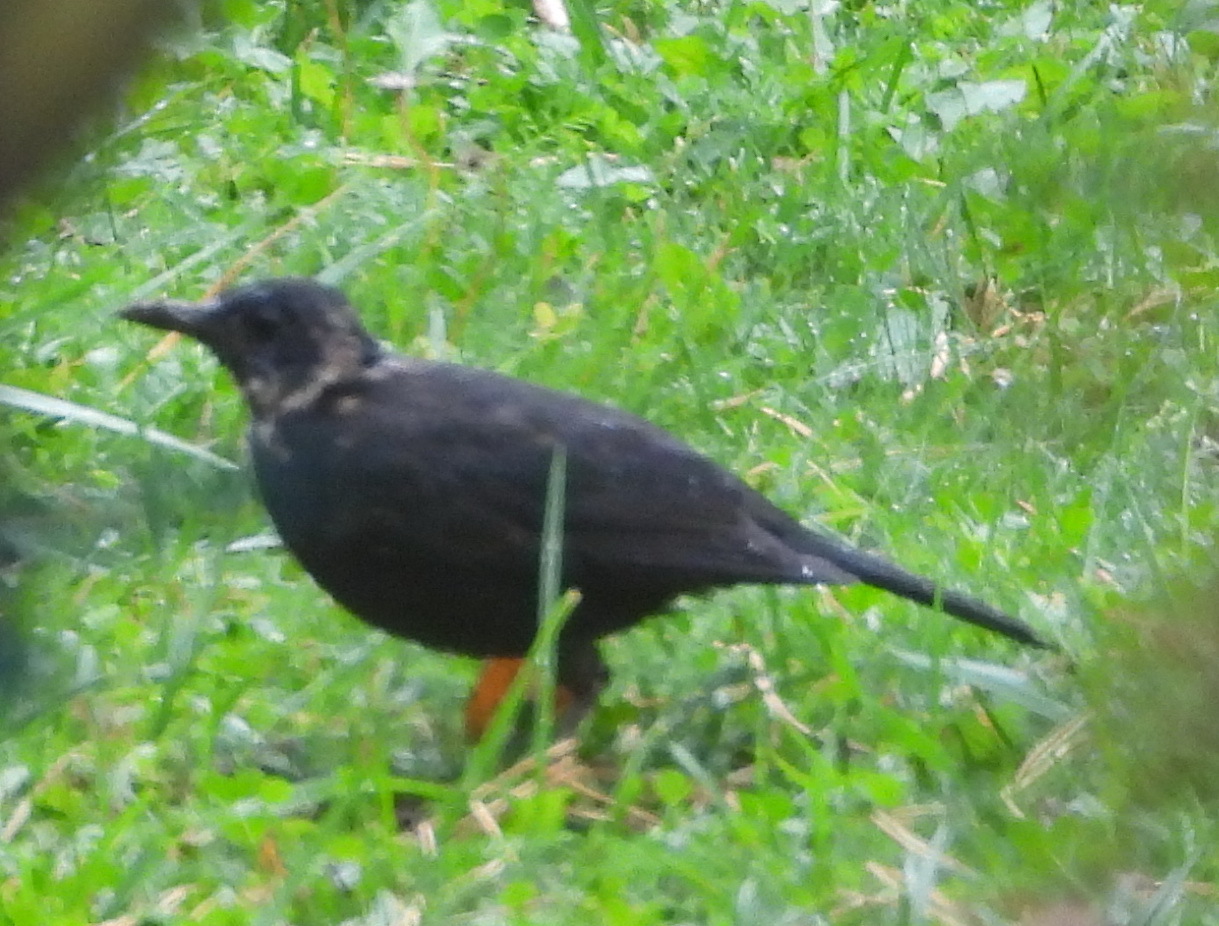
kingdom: Animalia
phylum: Chordata
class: Aves
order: Passeriformes
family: Turdidae
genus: Turdus
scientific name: Turdus merula
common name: Common blackbird
